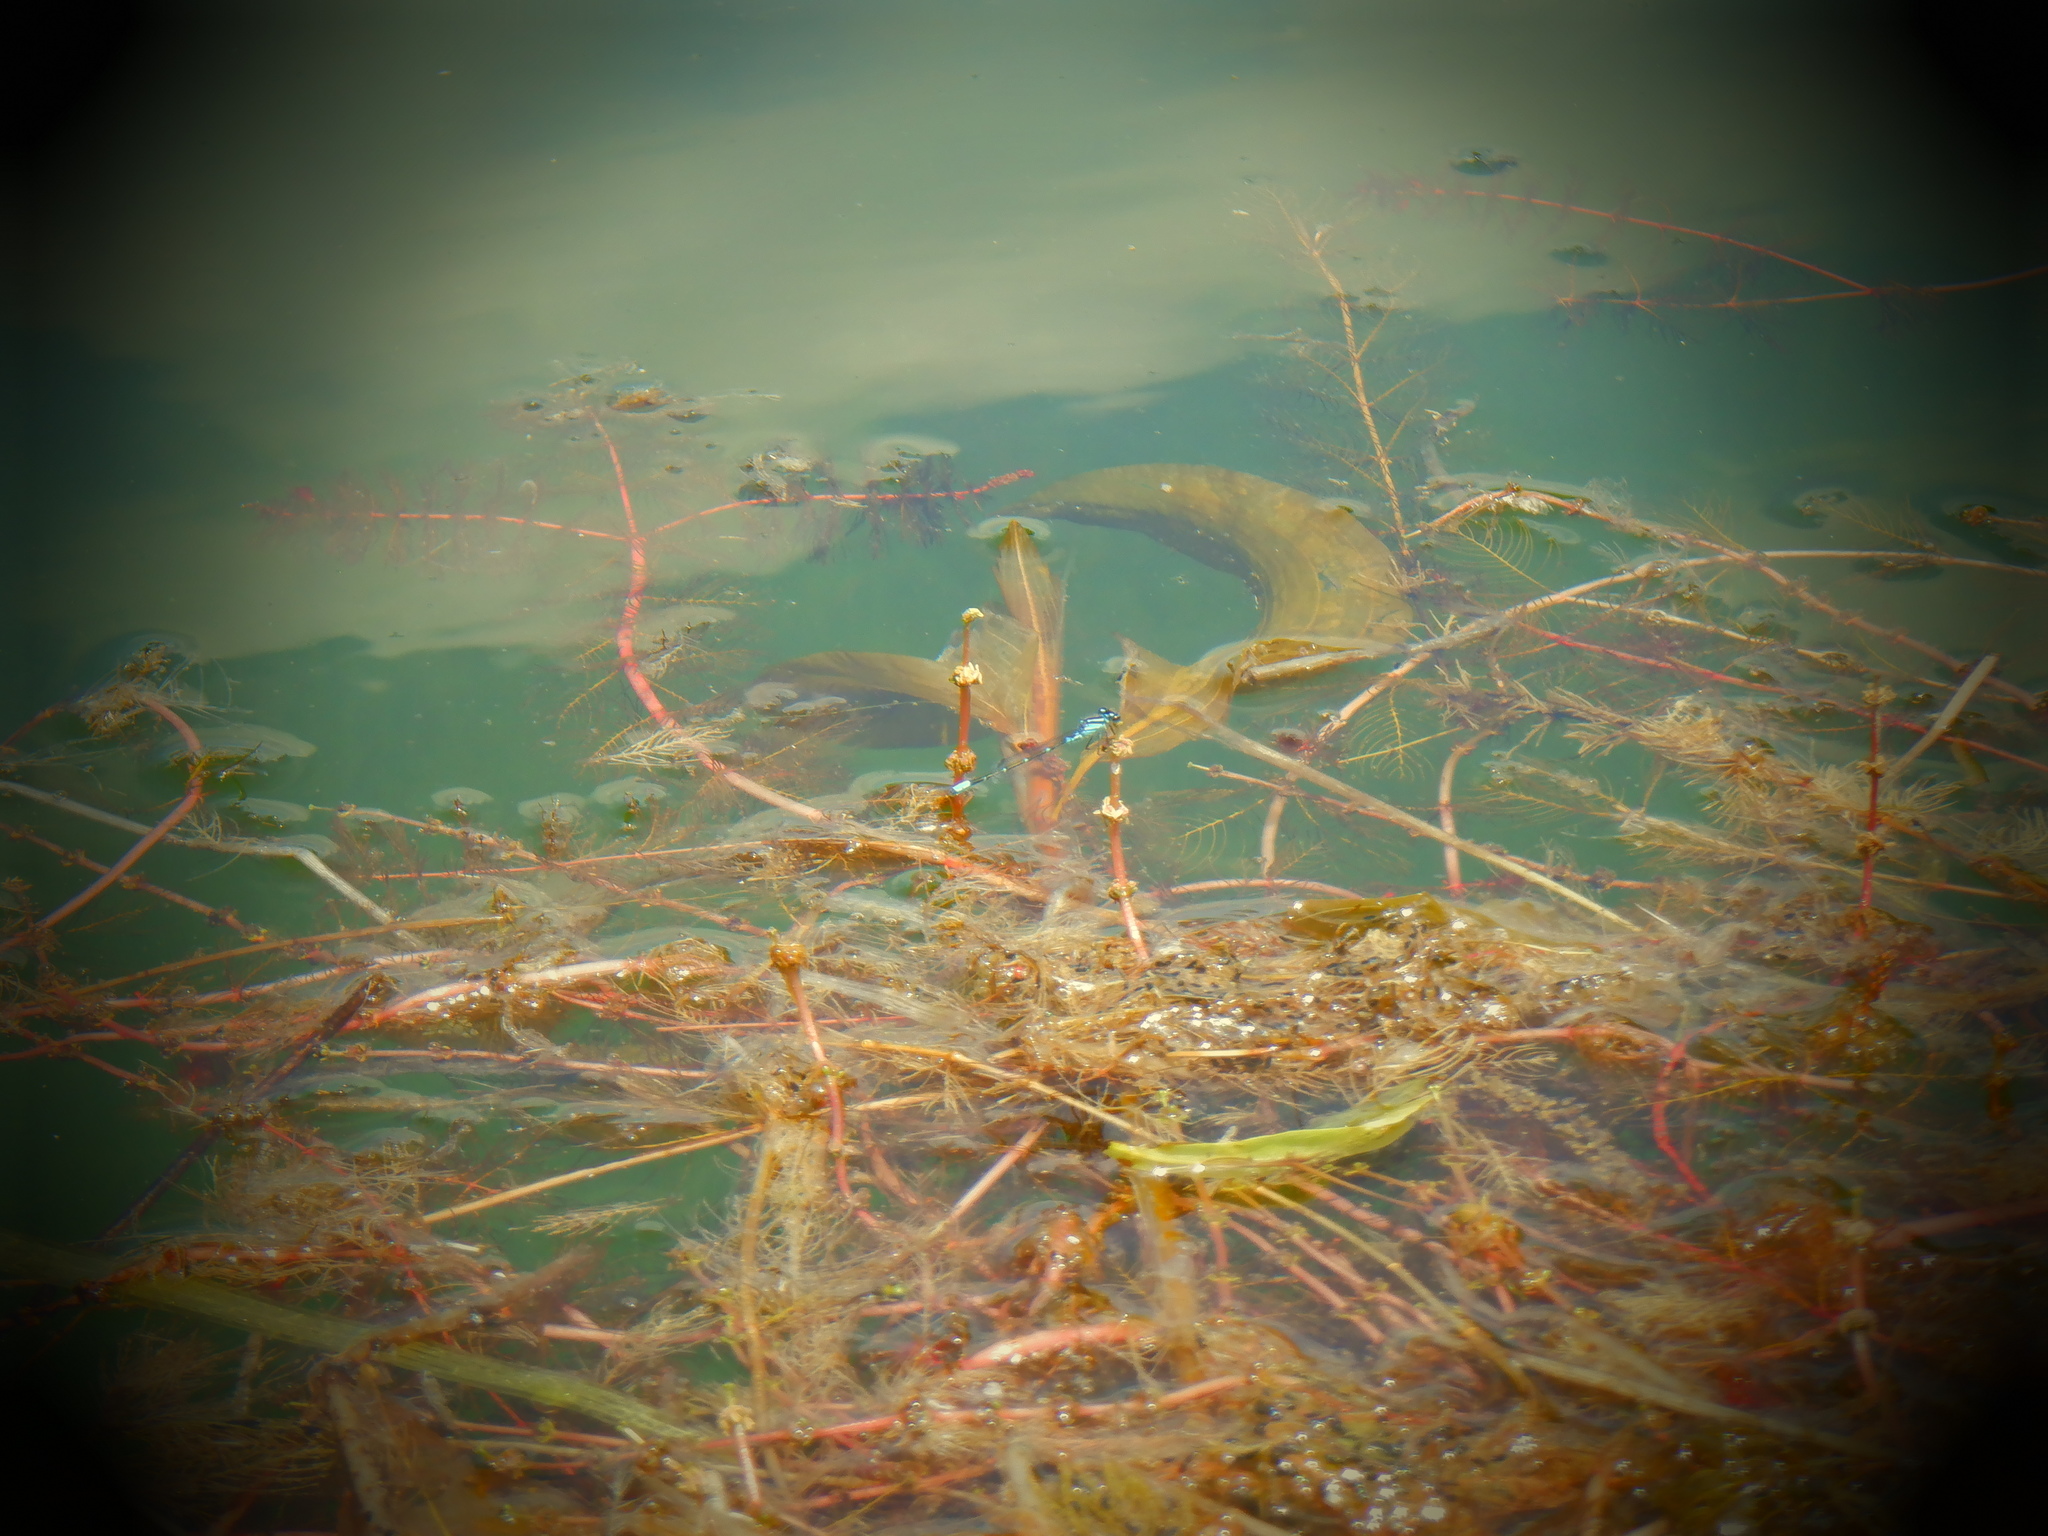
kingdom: Animalia
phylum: Arthropoda
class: Insecta
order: Odonata
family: Coenagrionidae
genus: Enallagma
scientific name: Enallagma geminatum
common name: Skimming bluet
